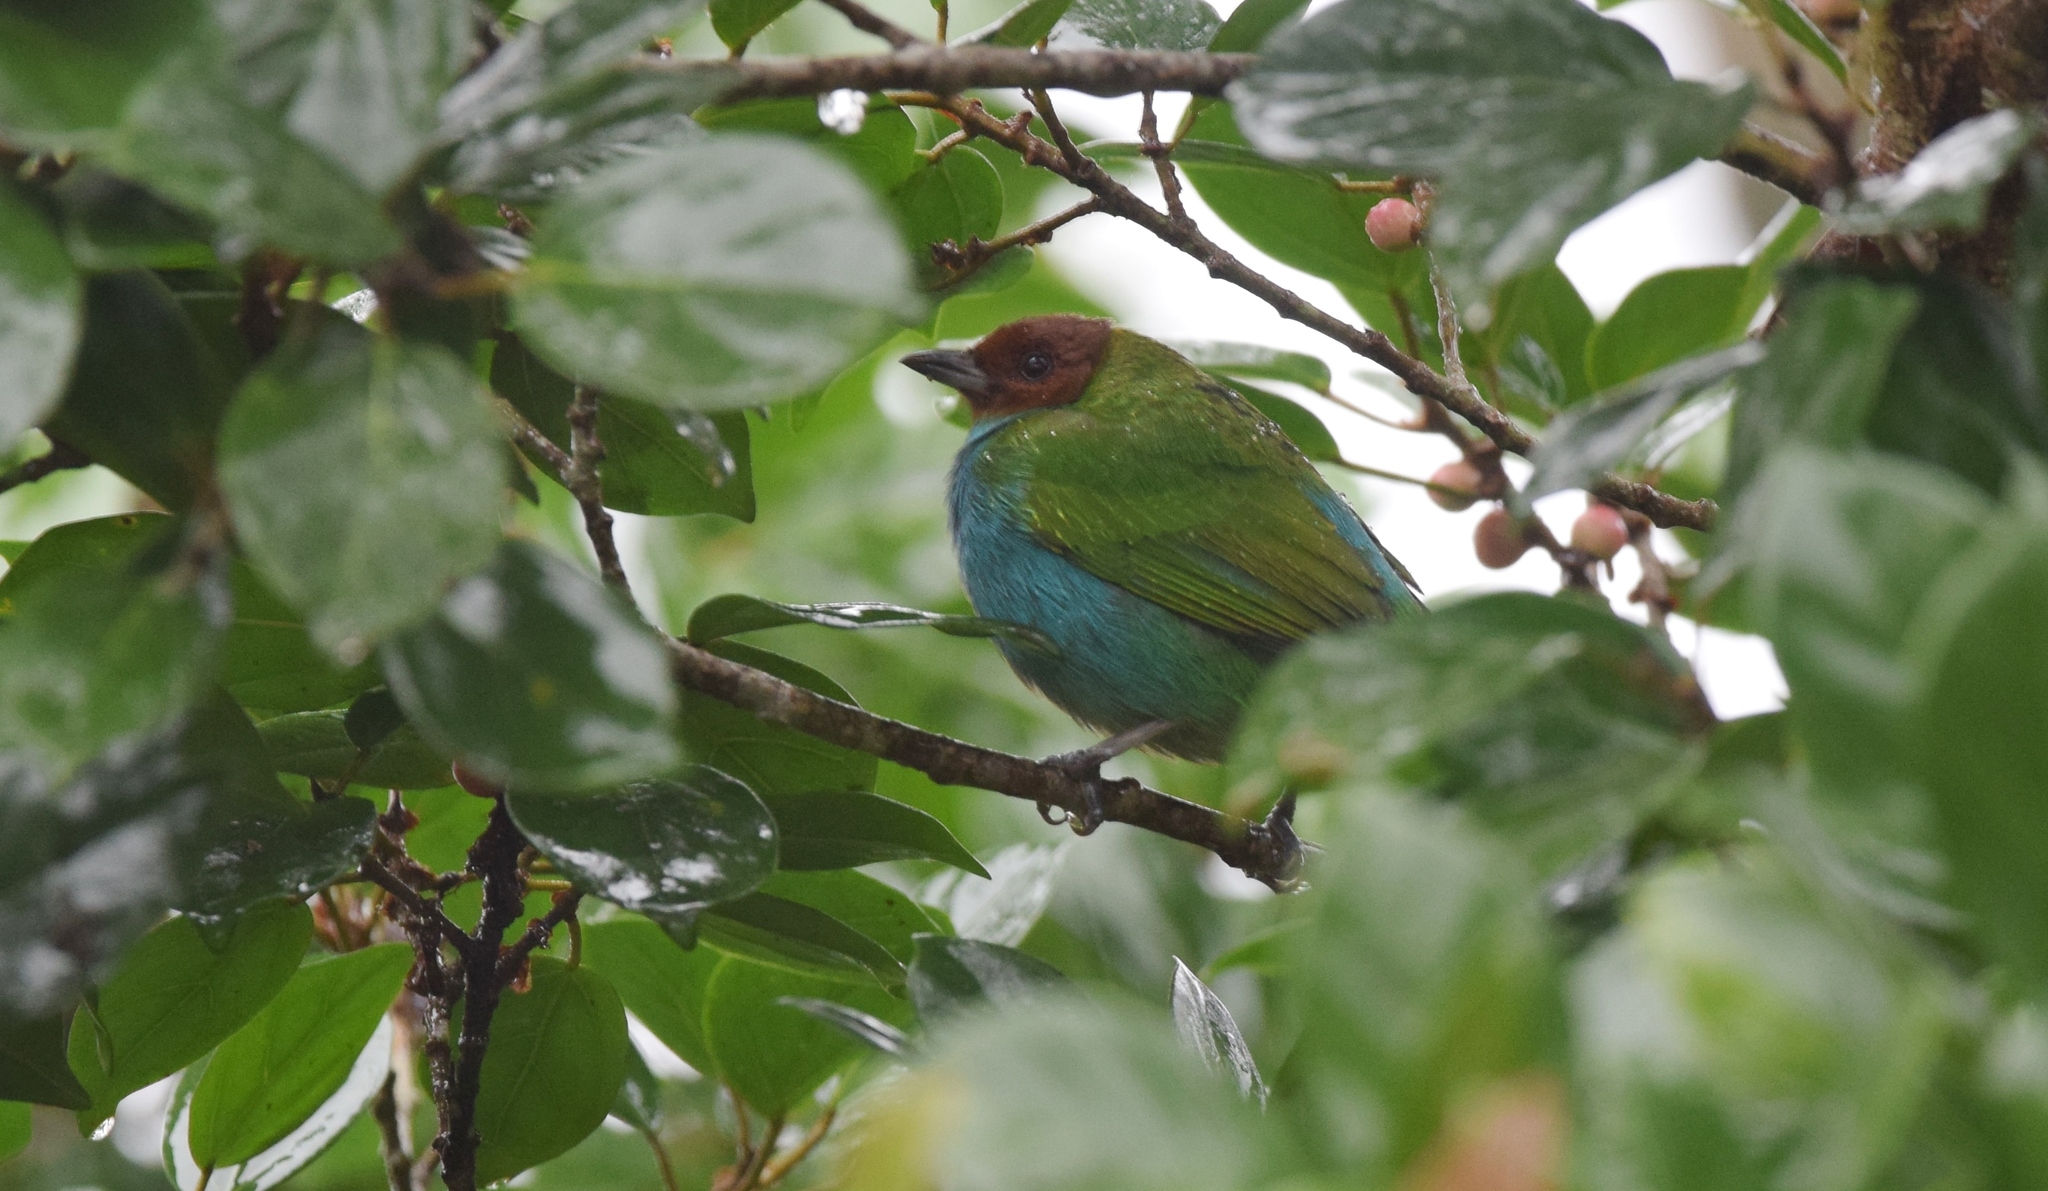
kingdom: Animalia
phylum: Chordata
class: Aves
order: Passeriformes
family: Thraupidae
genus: Tangara
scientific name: Tangara gyrola
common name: Bay-headed tanager
